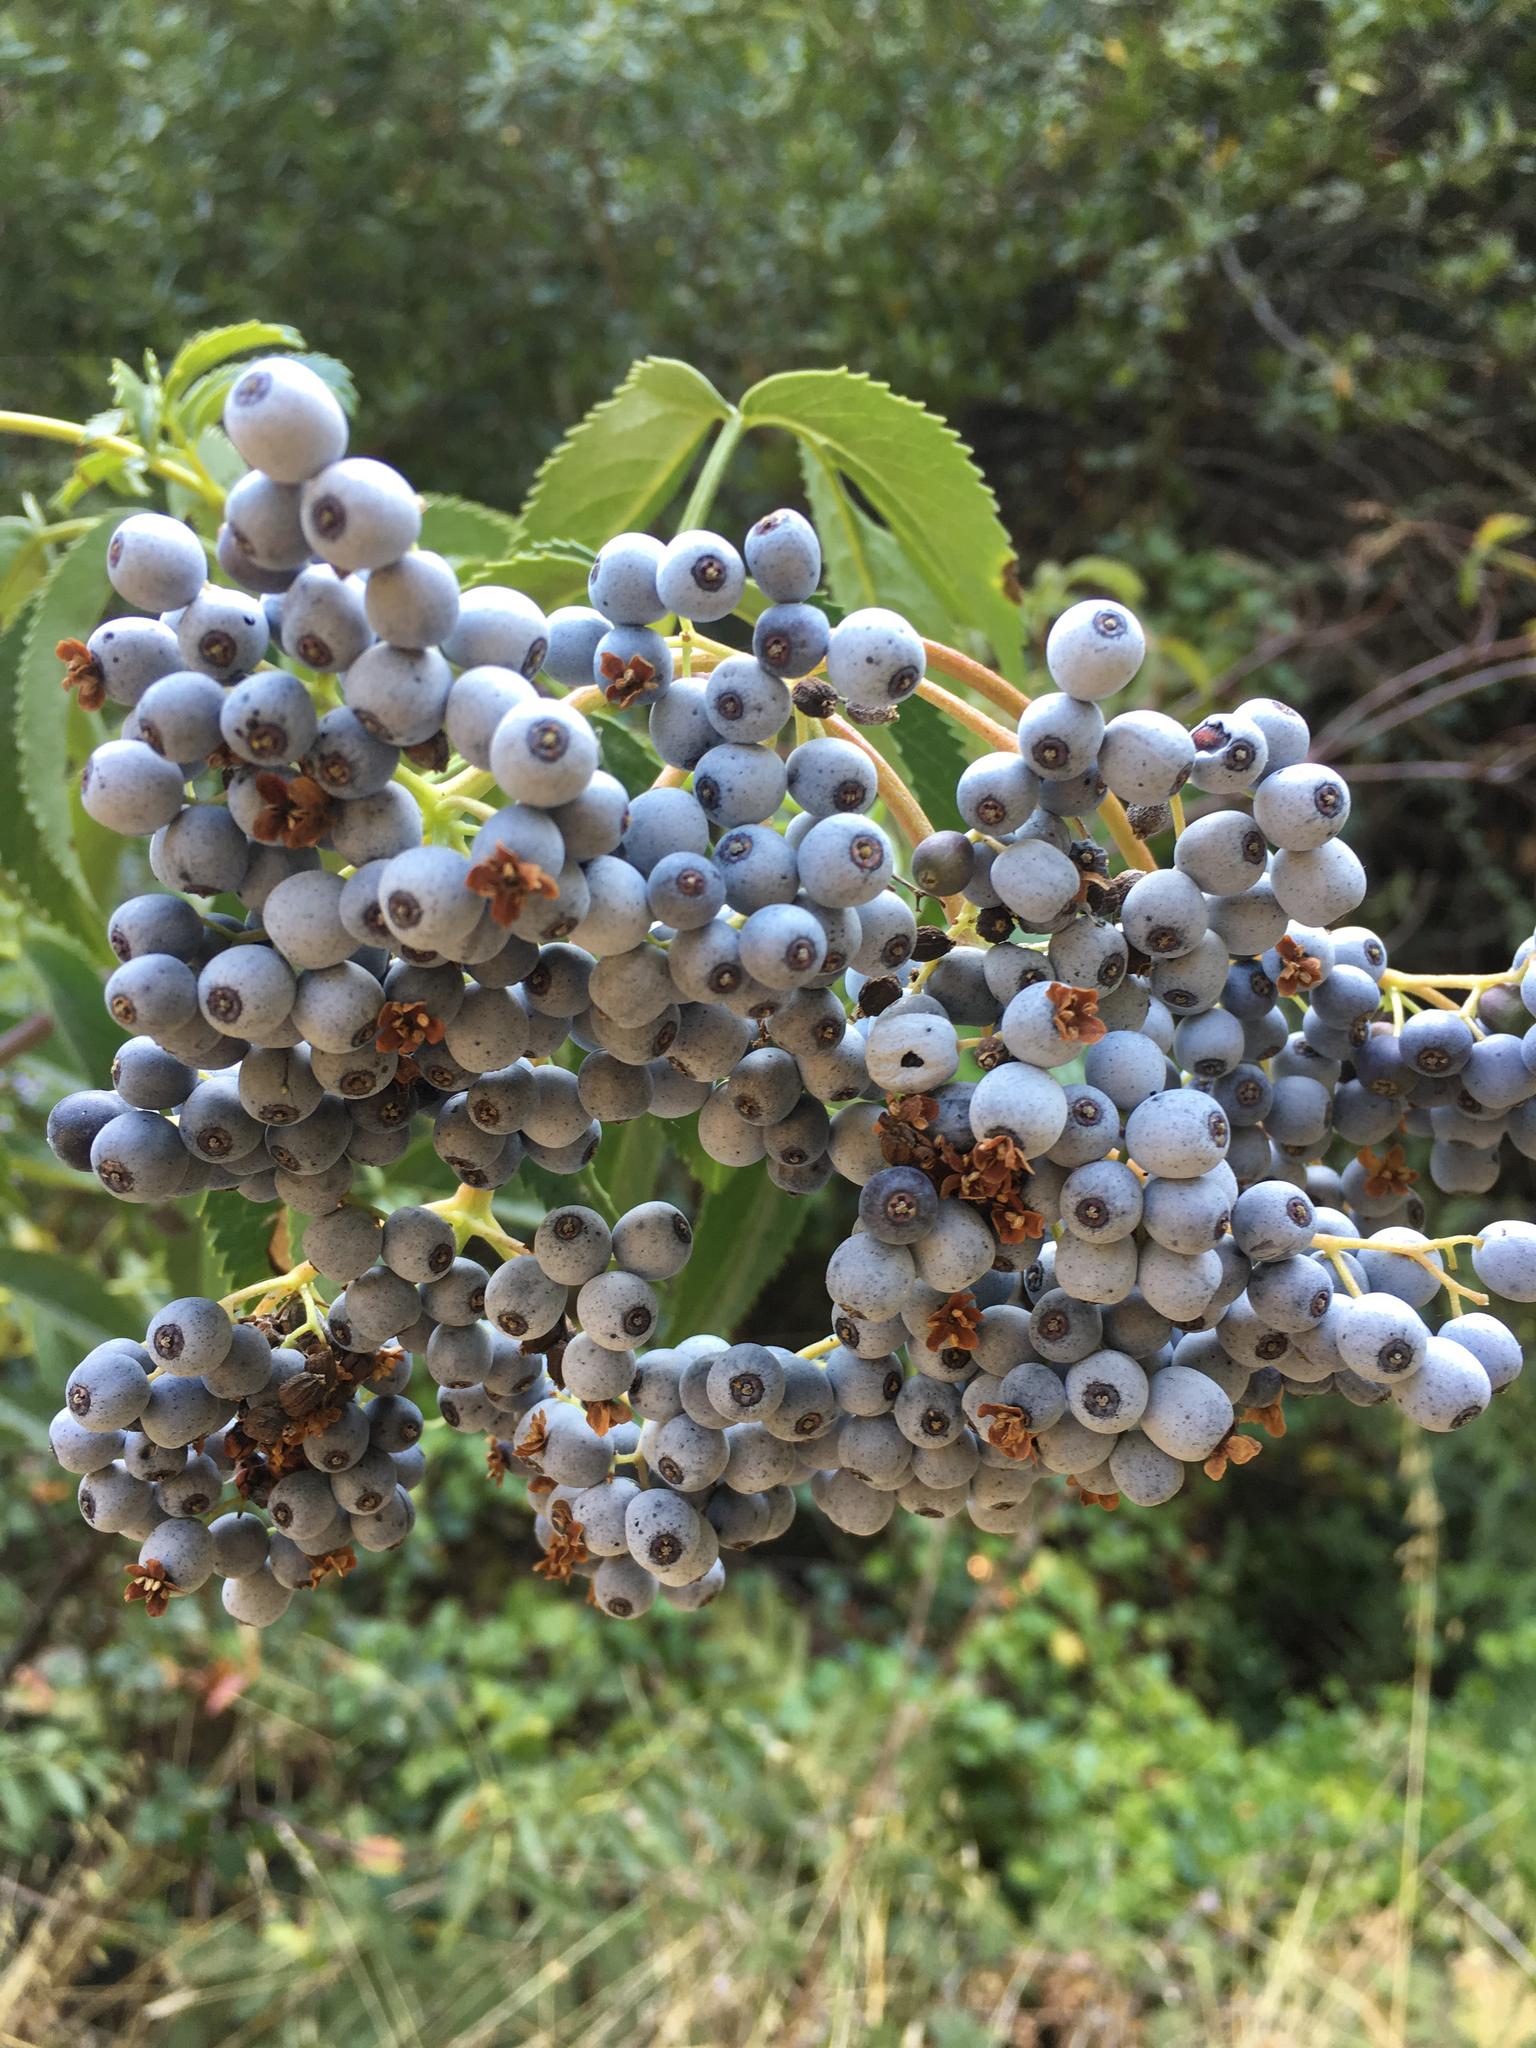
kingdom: Plantae
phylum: Tracheophyta
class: Magnoliopsida
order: Dipsacales
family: Viburnaceae
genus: Sambucus
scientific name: Sambucus cerulea
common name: Blue elder
